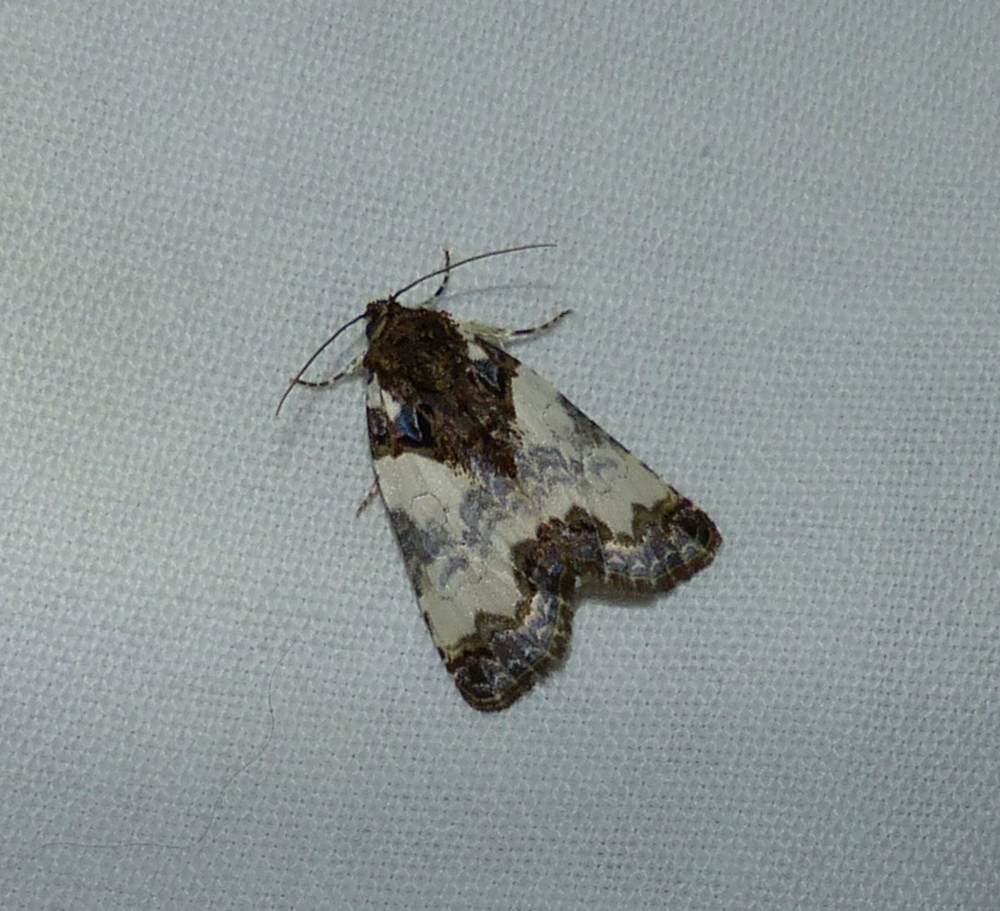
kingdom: Animalia
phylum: Arthropoda
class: Insecta
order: Lepidoptera
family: Noctuidae
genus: Cerma
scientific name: Cerma cerintha
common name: Tufted bird-dropping moth
